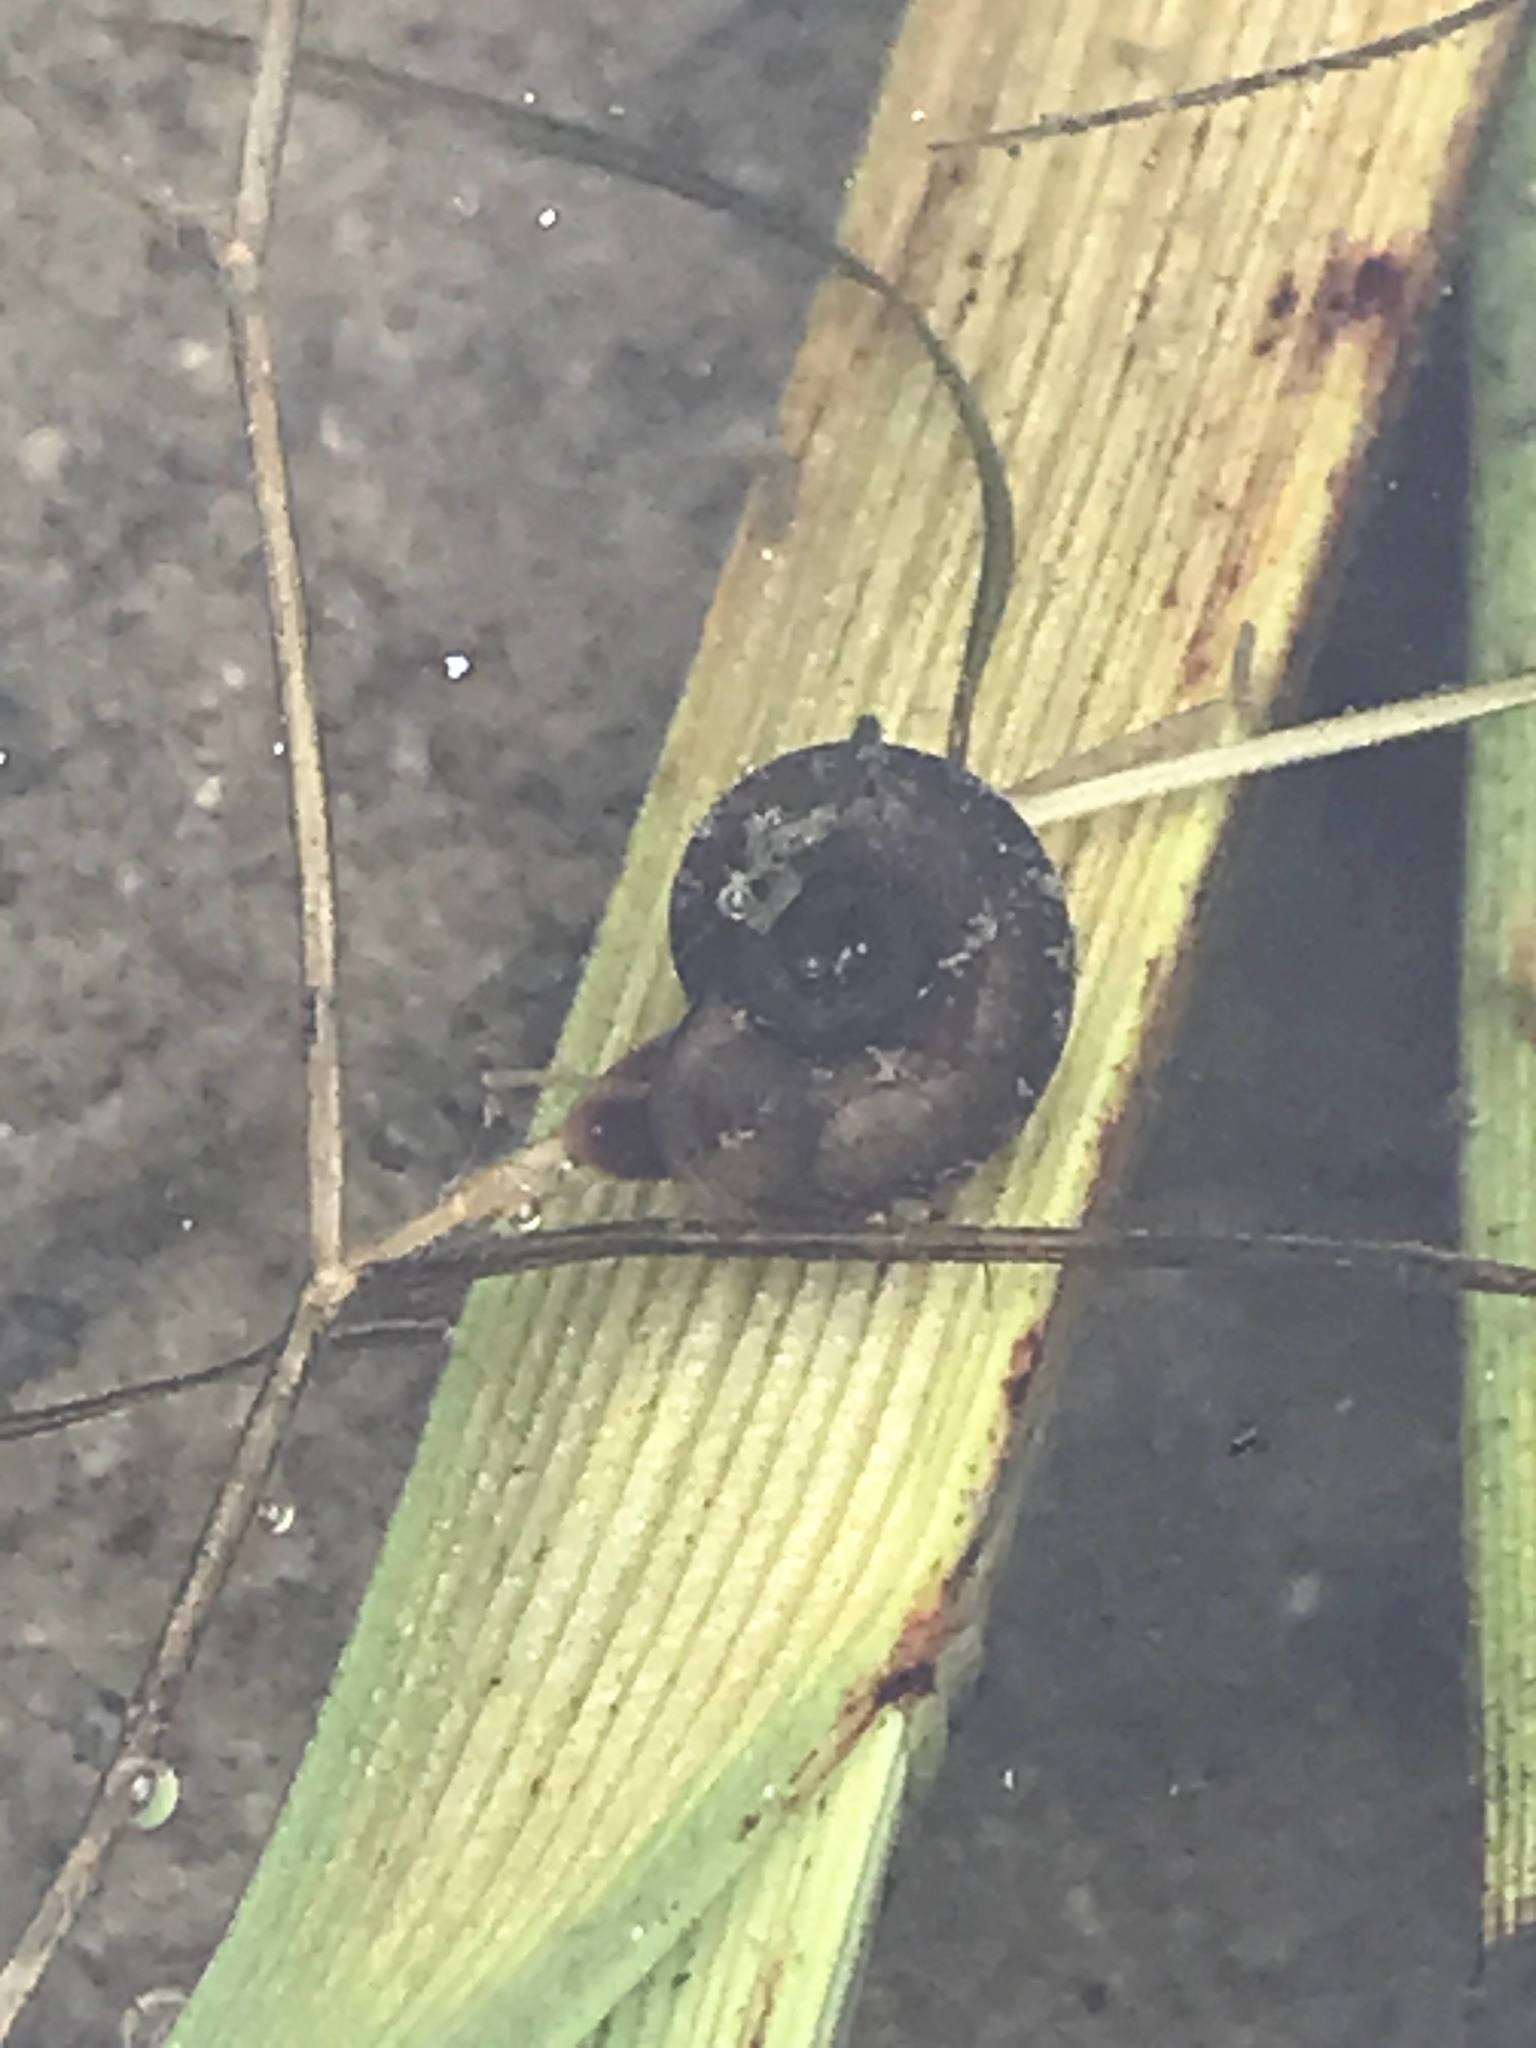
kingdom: Animalia
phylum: Mollusca
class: Gastropoda
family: Planorbidae
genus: Planorbarius
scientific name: Planorbarius corneus
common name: Great ramshorn
